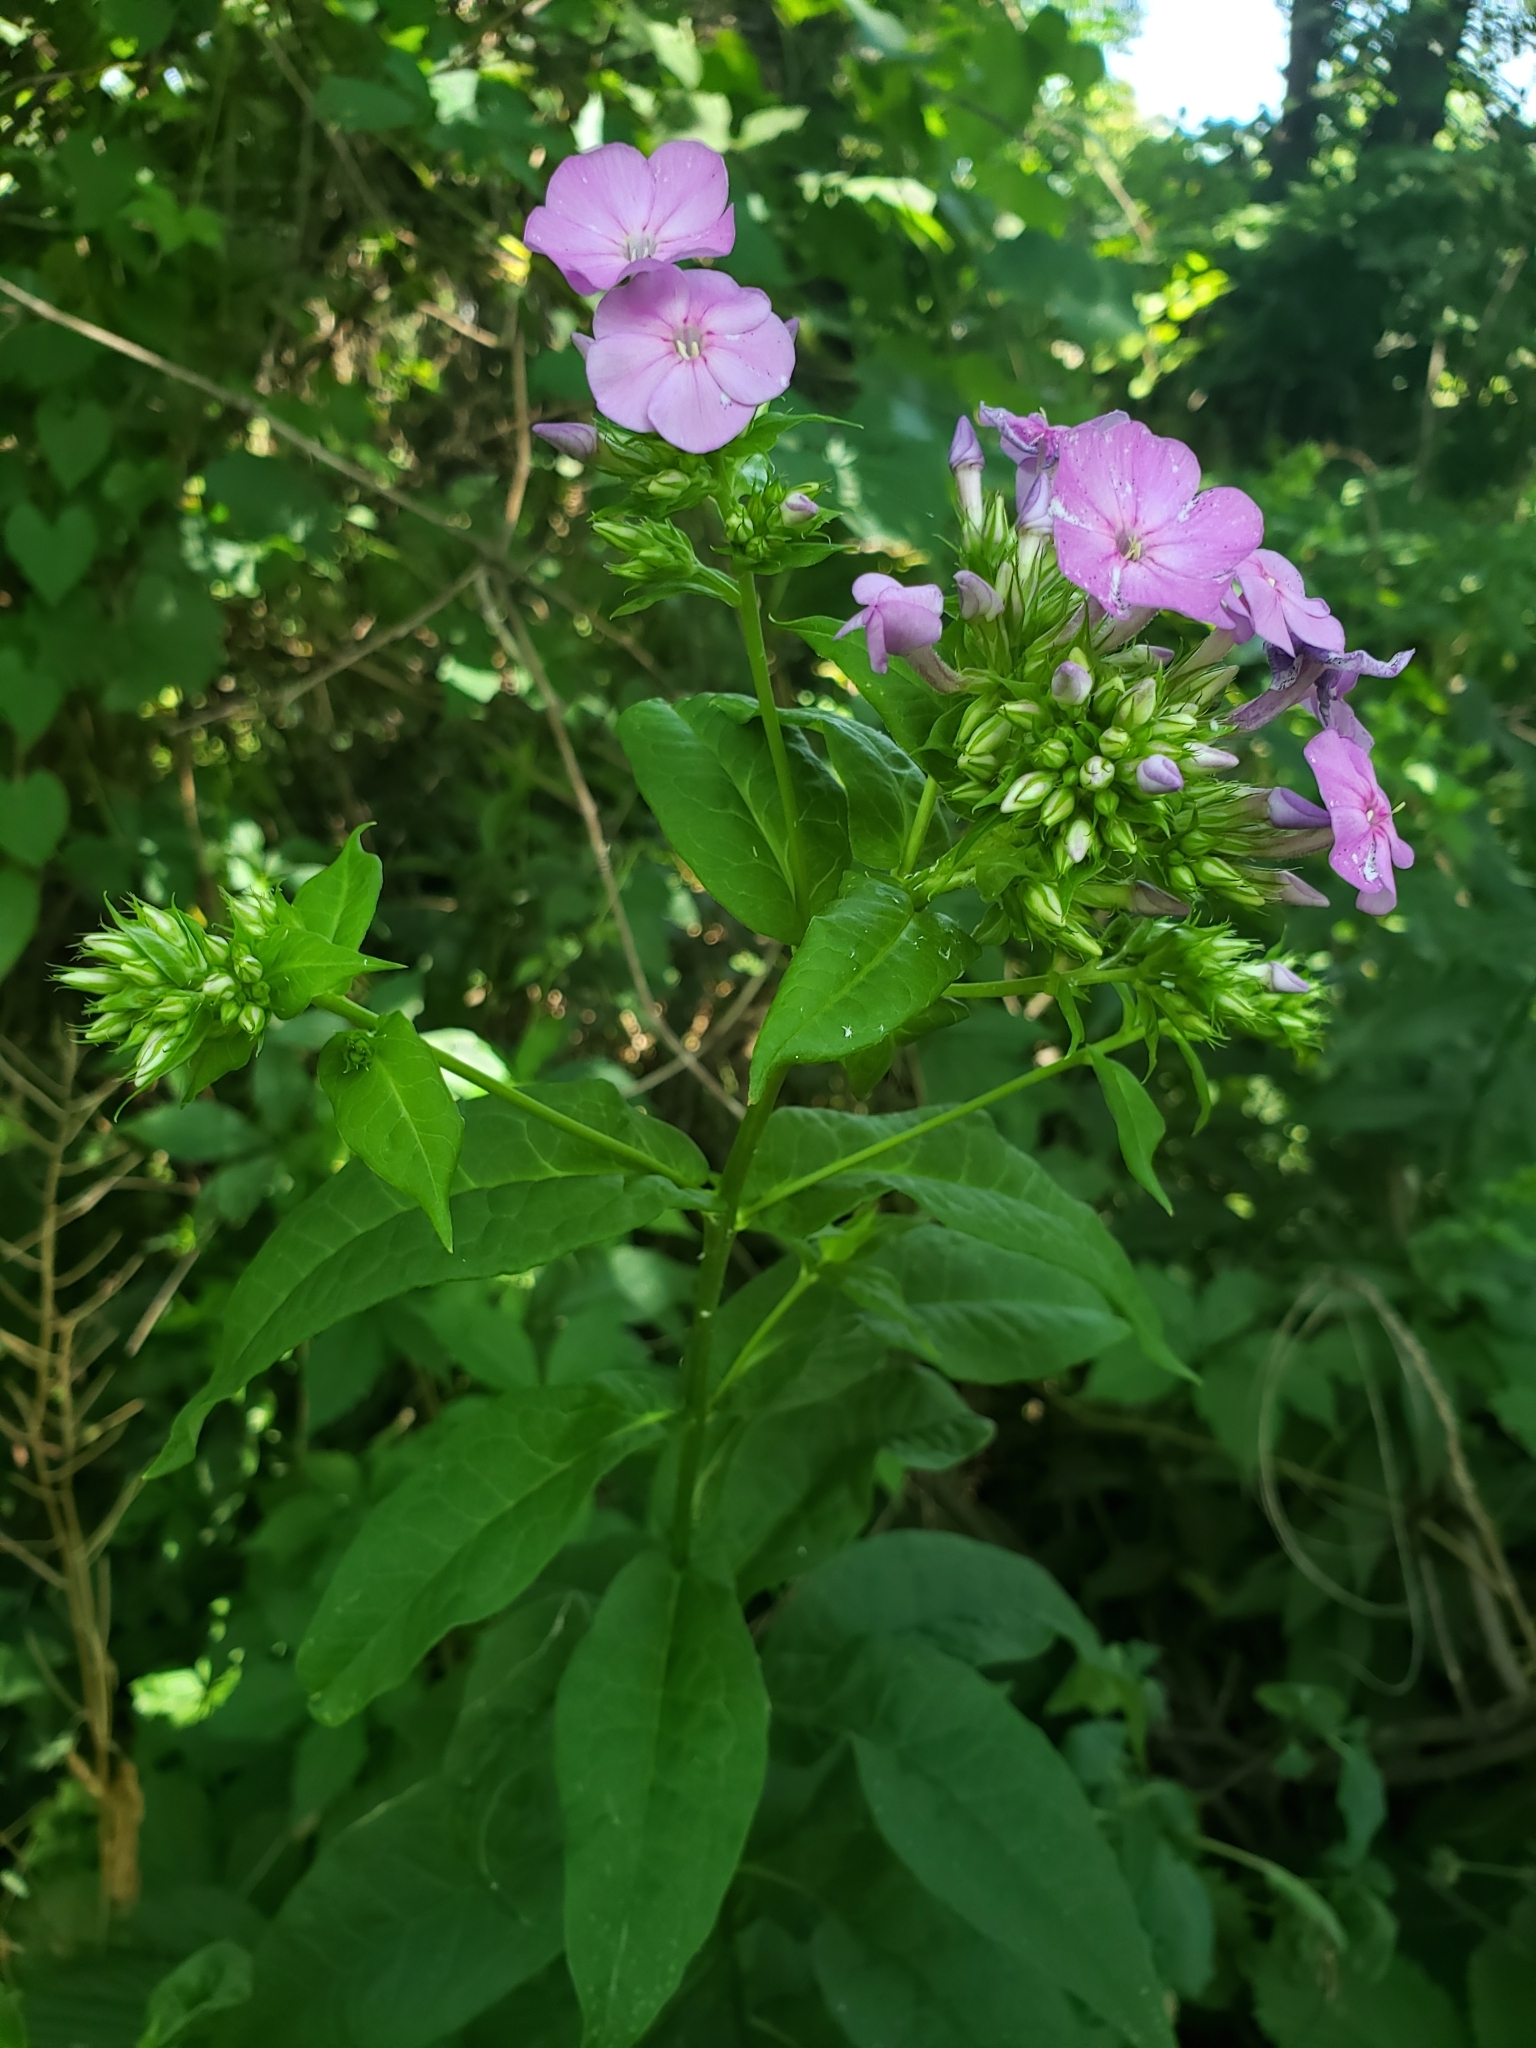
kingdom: Plantae
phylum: Tracheophyta
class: Magnoliopsida
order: Ericales
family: Polemoniaceae
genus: Phlox
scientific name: Phlox paniculata
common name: Fall phlox
